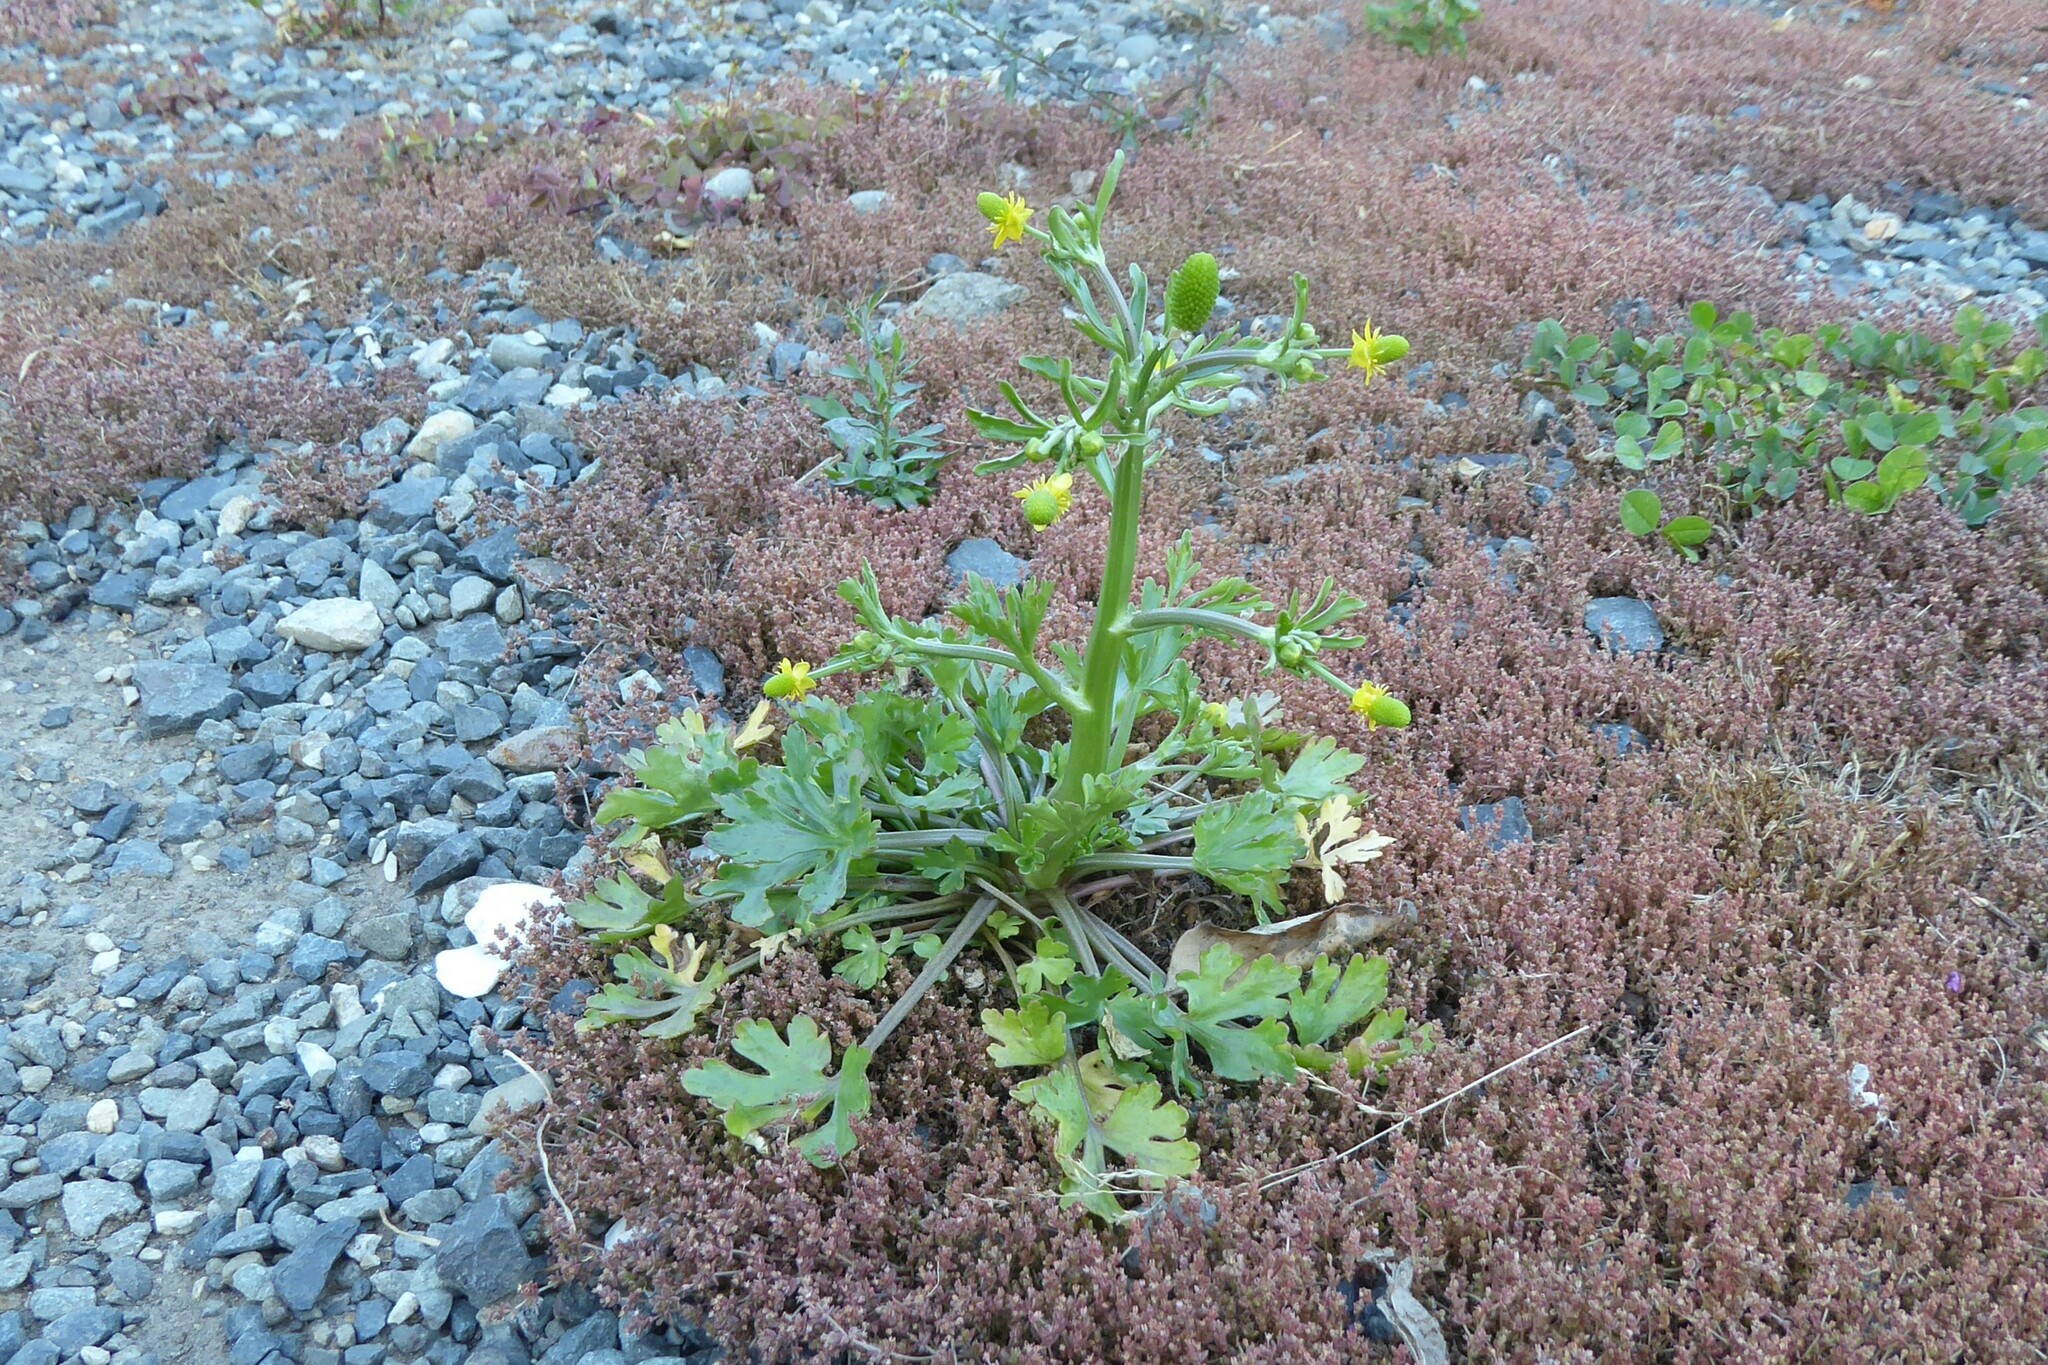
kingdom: Plantae
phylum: Tracheophyta
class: Magnoliopsida
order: Ranunculales
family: Ranunculaceae
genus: Ranunculus
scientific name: Ranunculus sceleratus
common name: Celery-leaved buttercup
